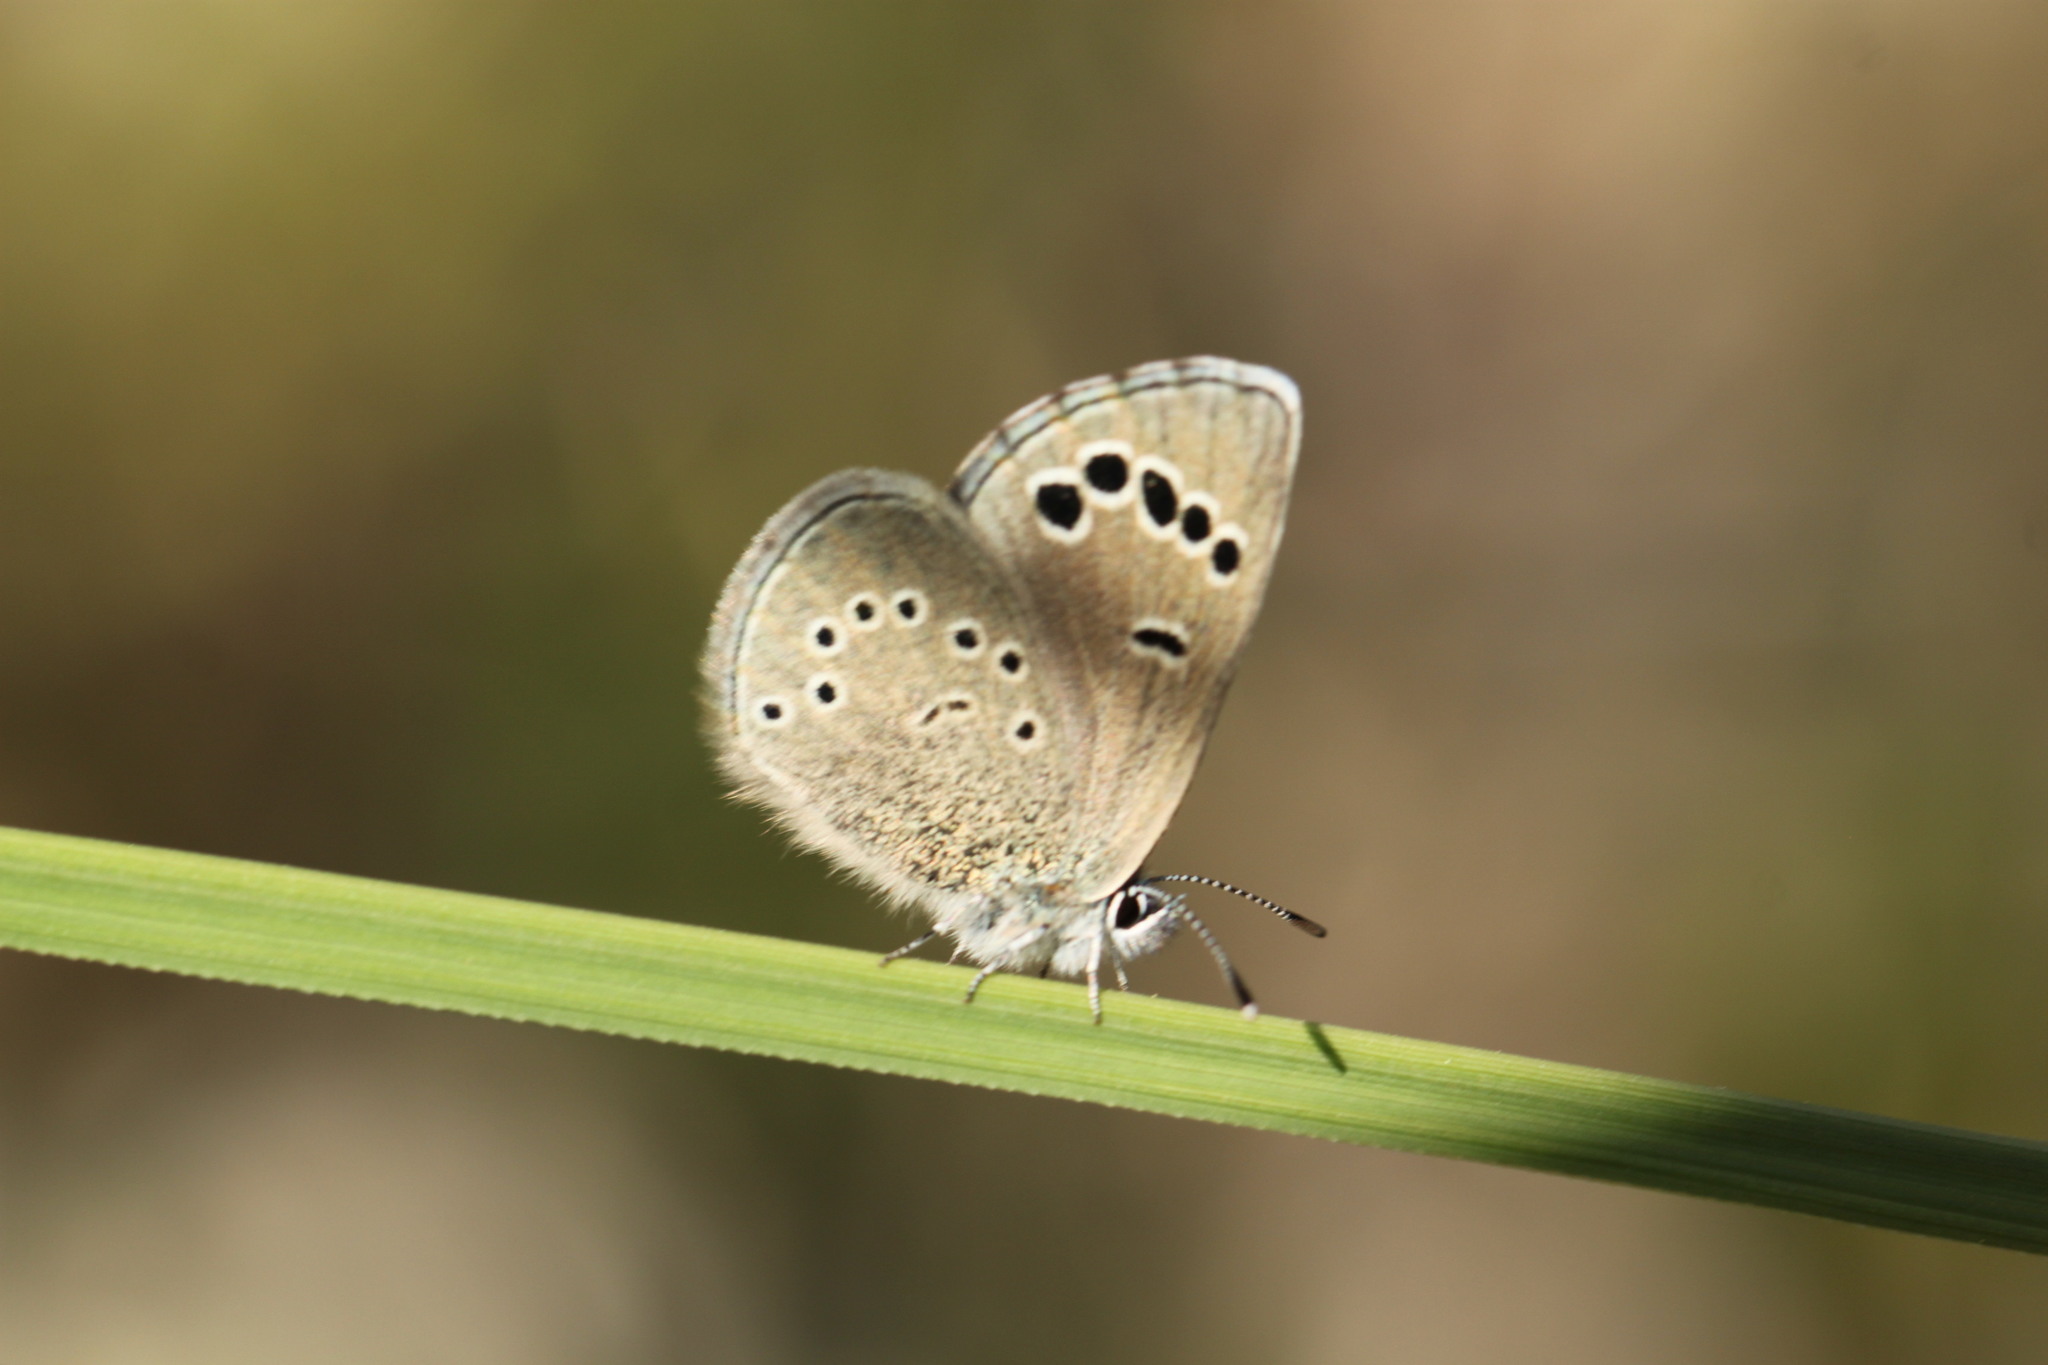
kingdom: Animalia
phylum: Arthropoda
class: Insecta
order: Lepidoptera
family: Lycaenidae
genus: Glaucopsyche
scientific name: Glaucopsyche paphos
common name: Paphos blue
